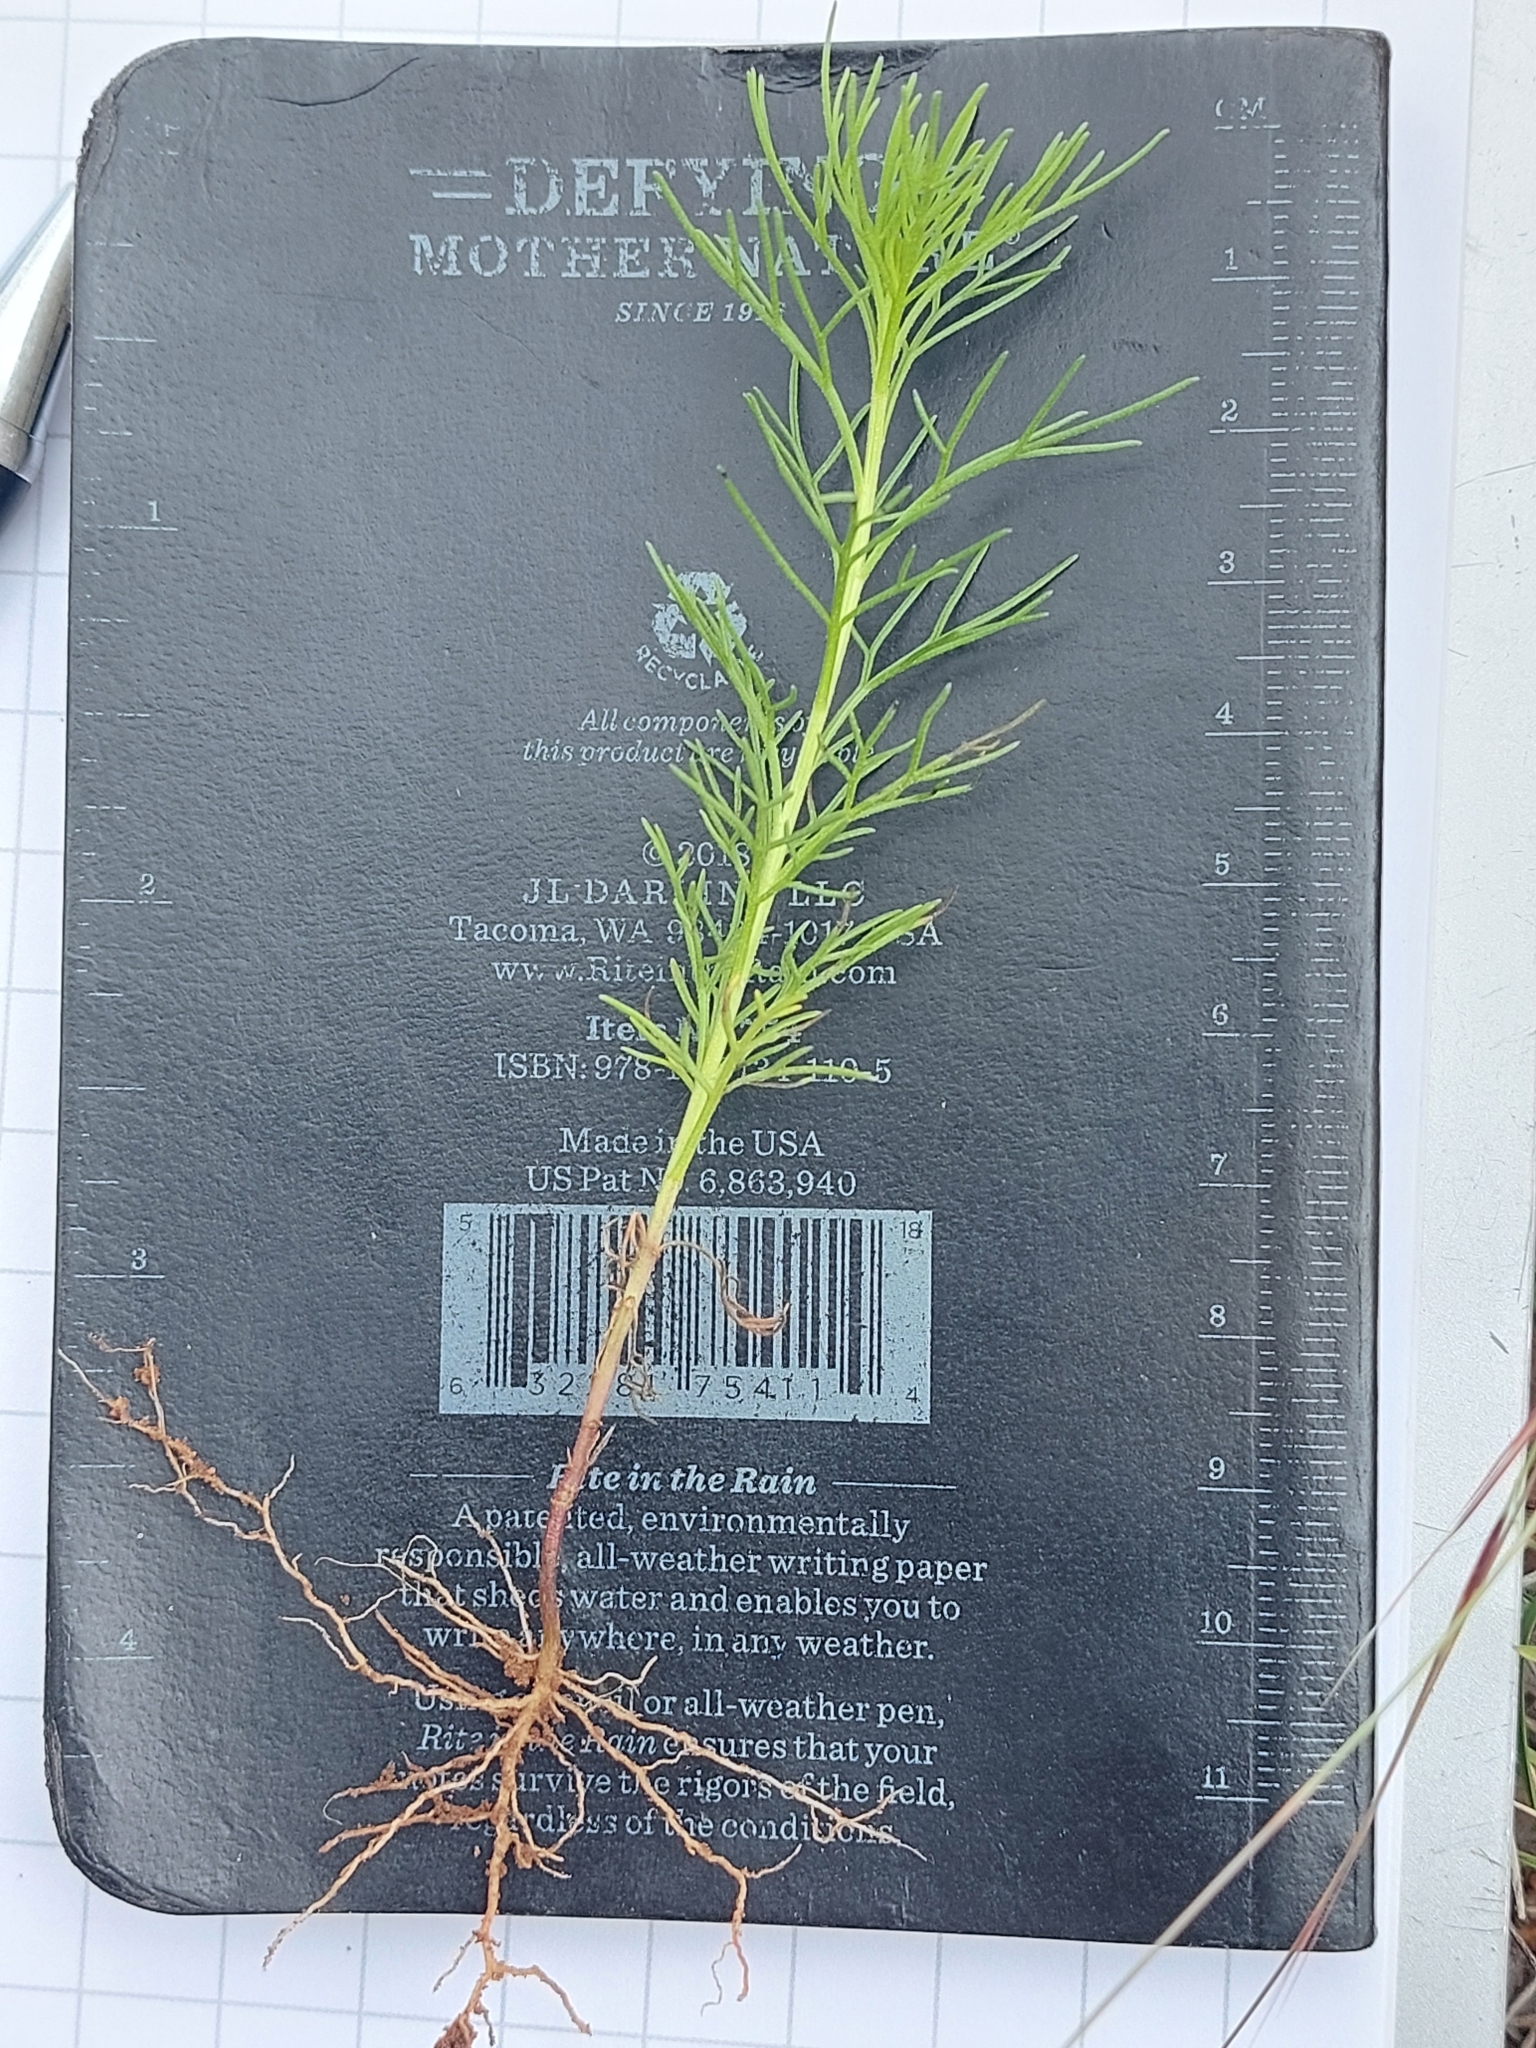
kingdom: Plantae
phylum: Tracheophyta
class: Magnoliopsida
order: Asterales
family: Asteraceae
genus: Schkuhria
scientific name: Schkuhria pinnata
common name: Dwarf marigold
